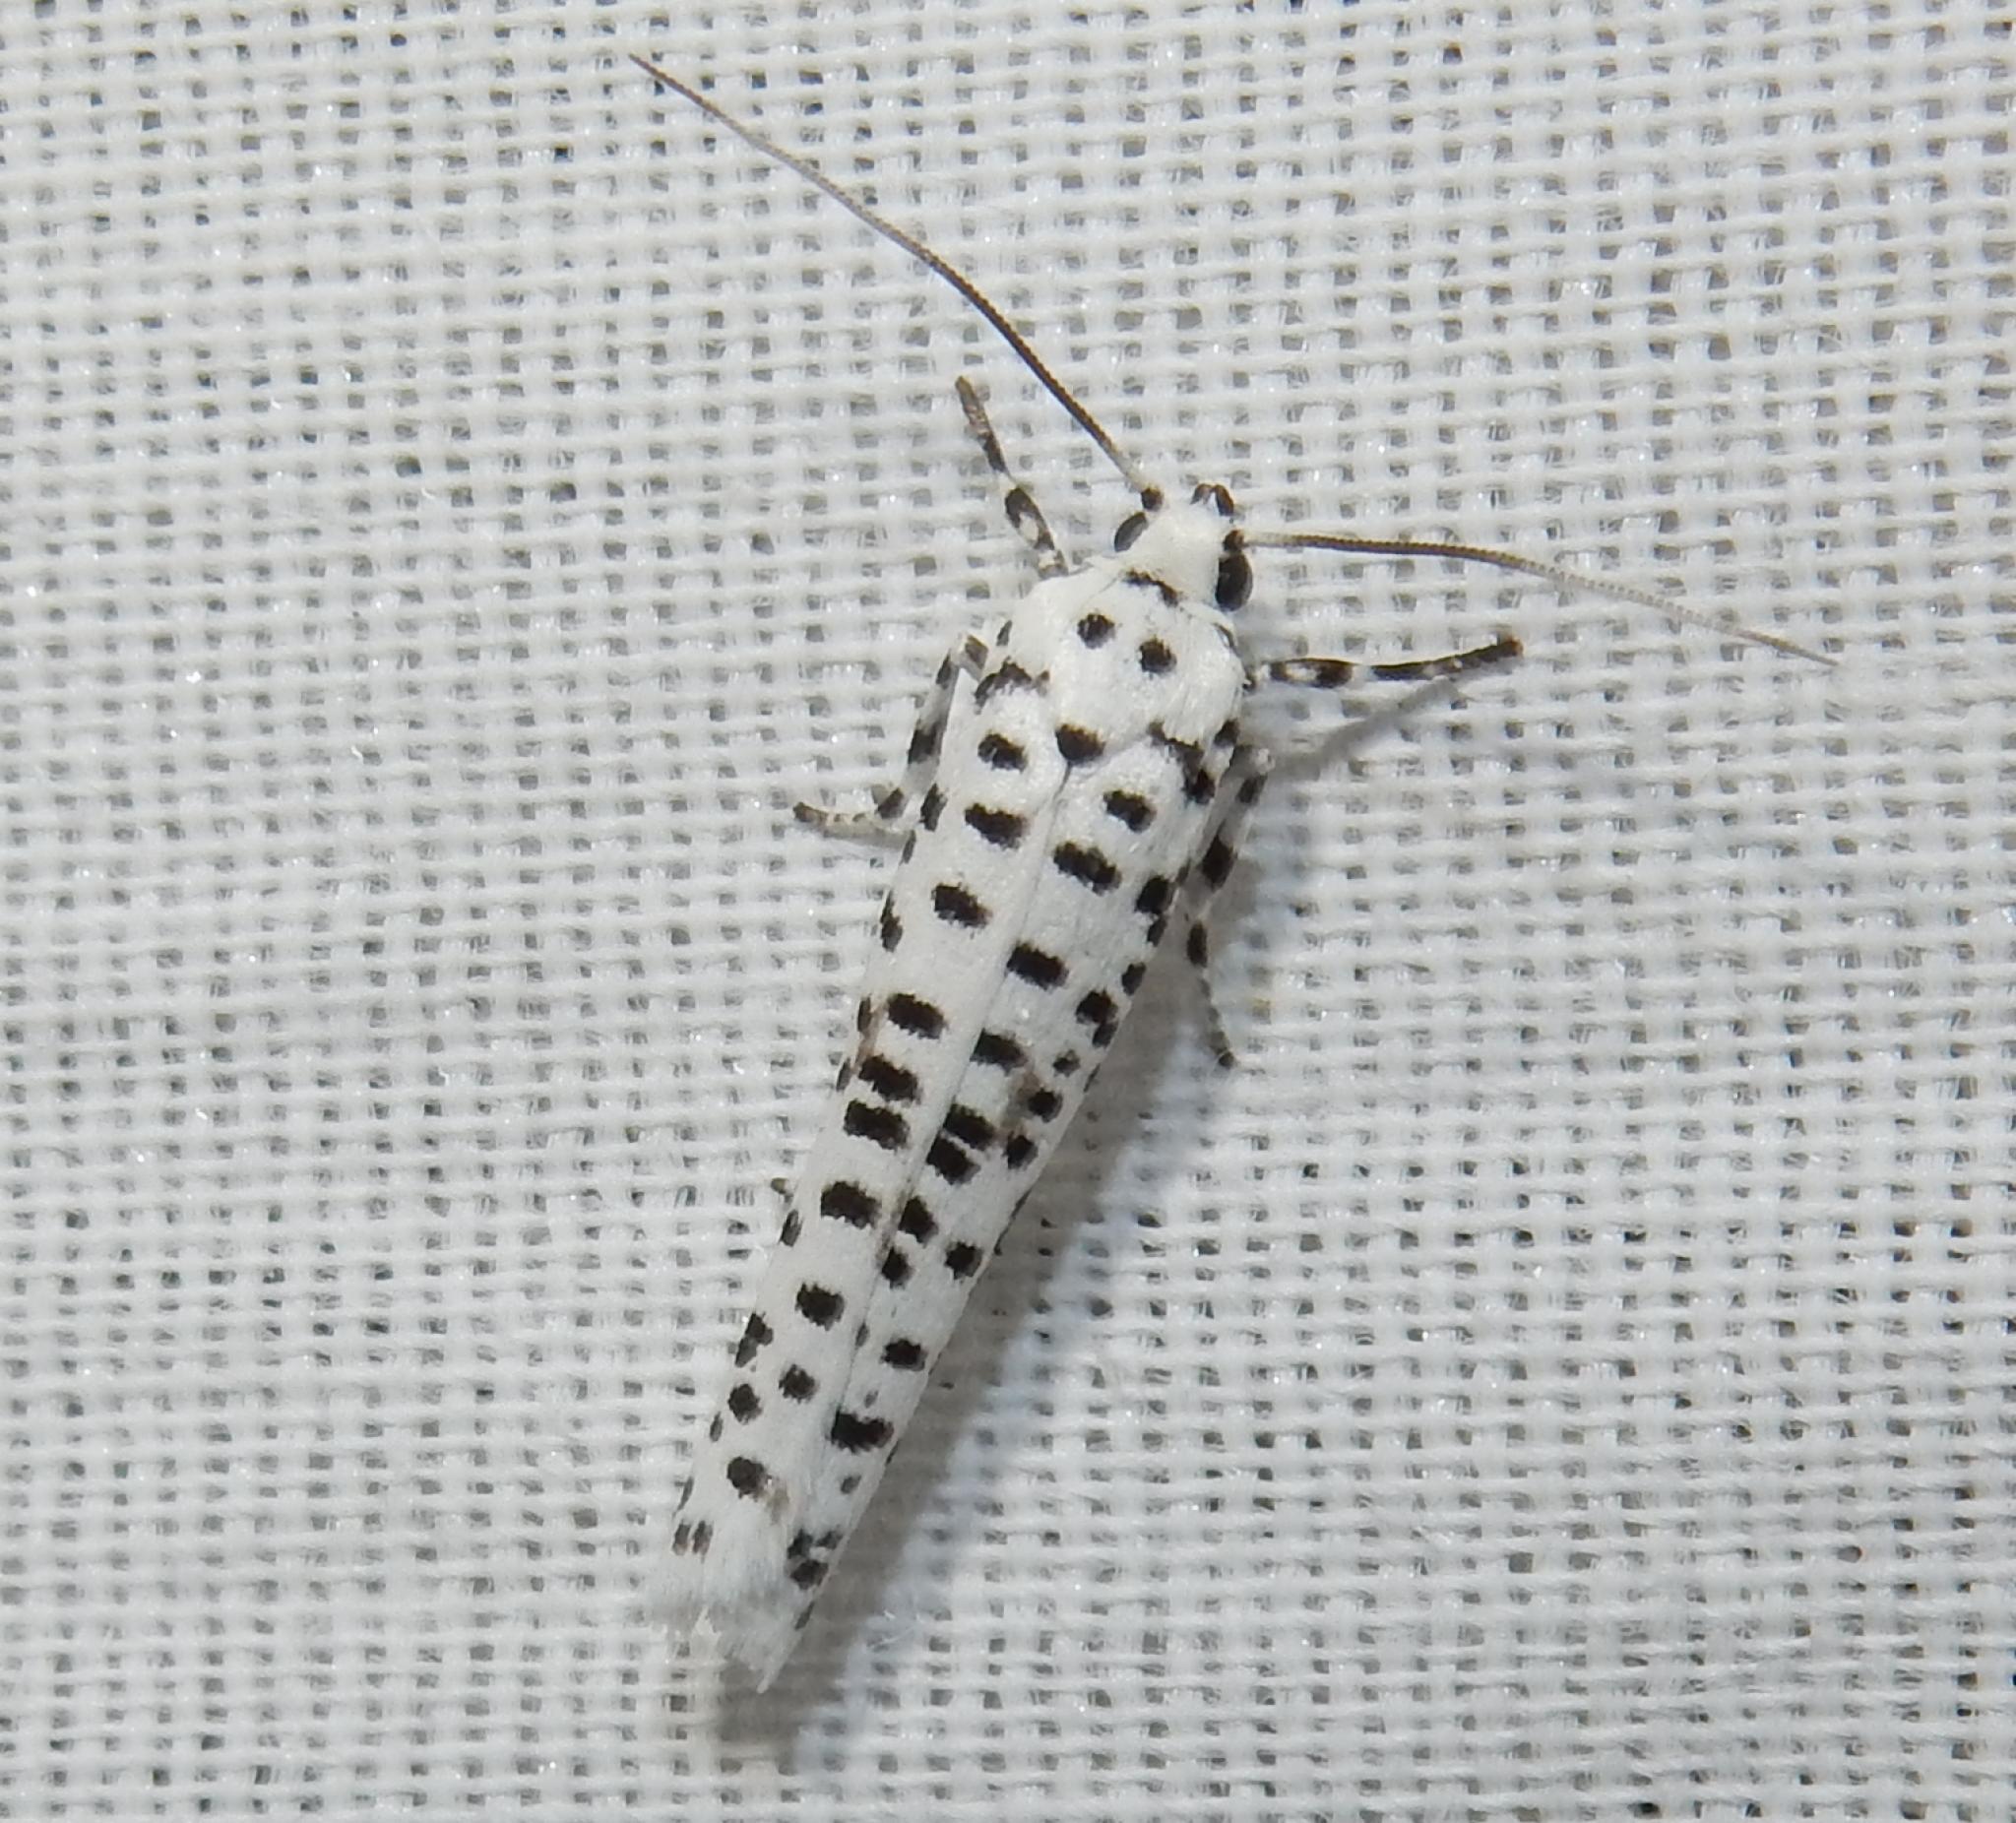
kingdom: Animalia
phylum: Arthropoda
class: Insecta
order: Lepidoptera
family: Yponomeutidae
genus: Yponomeuta
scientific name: Yponomeuta strigillata
